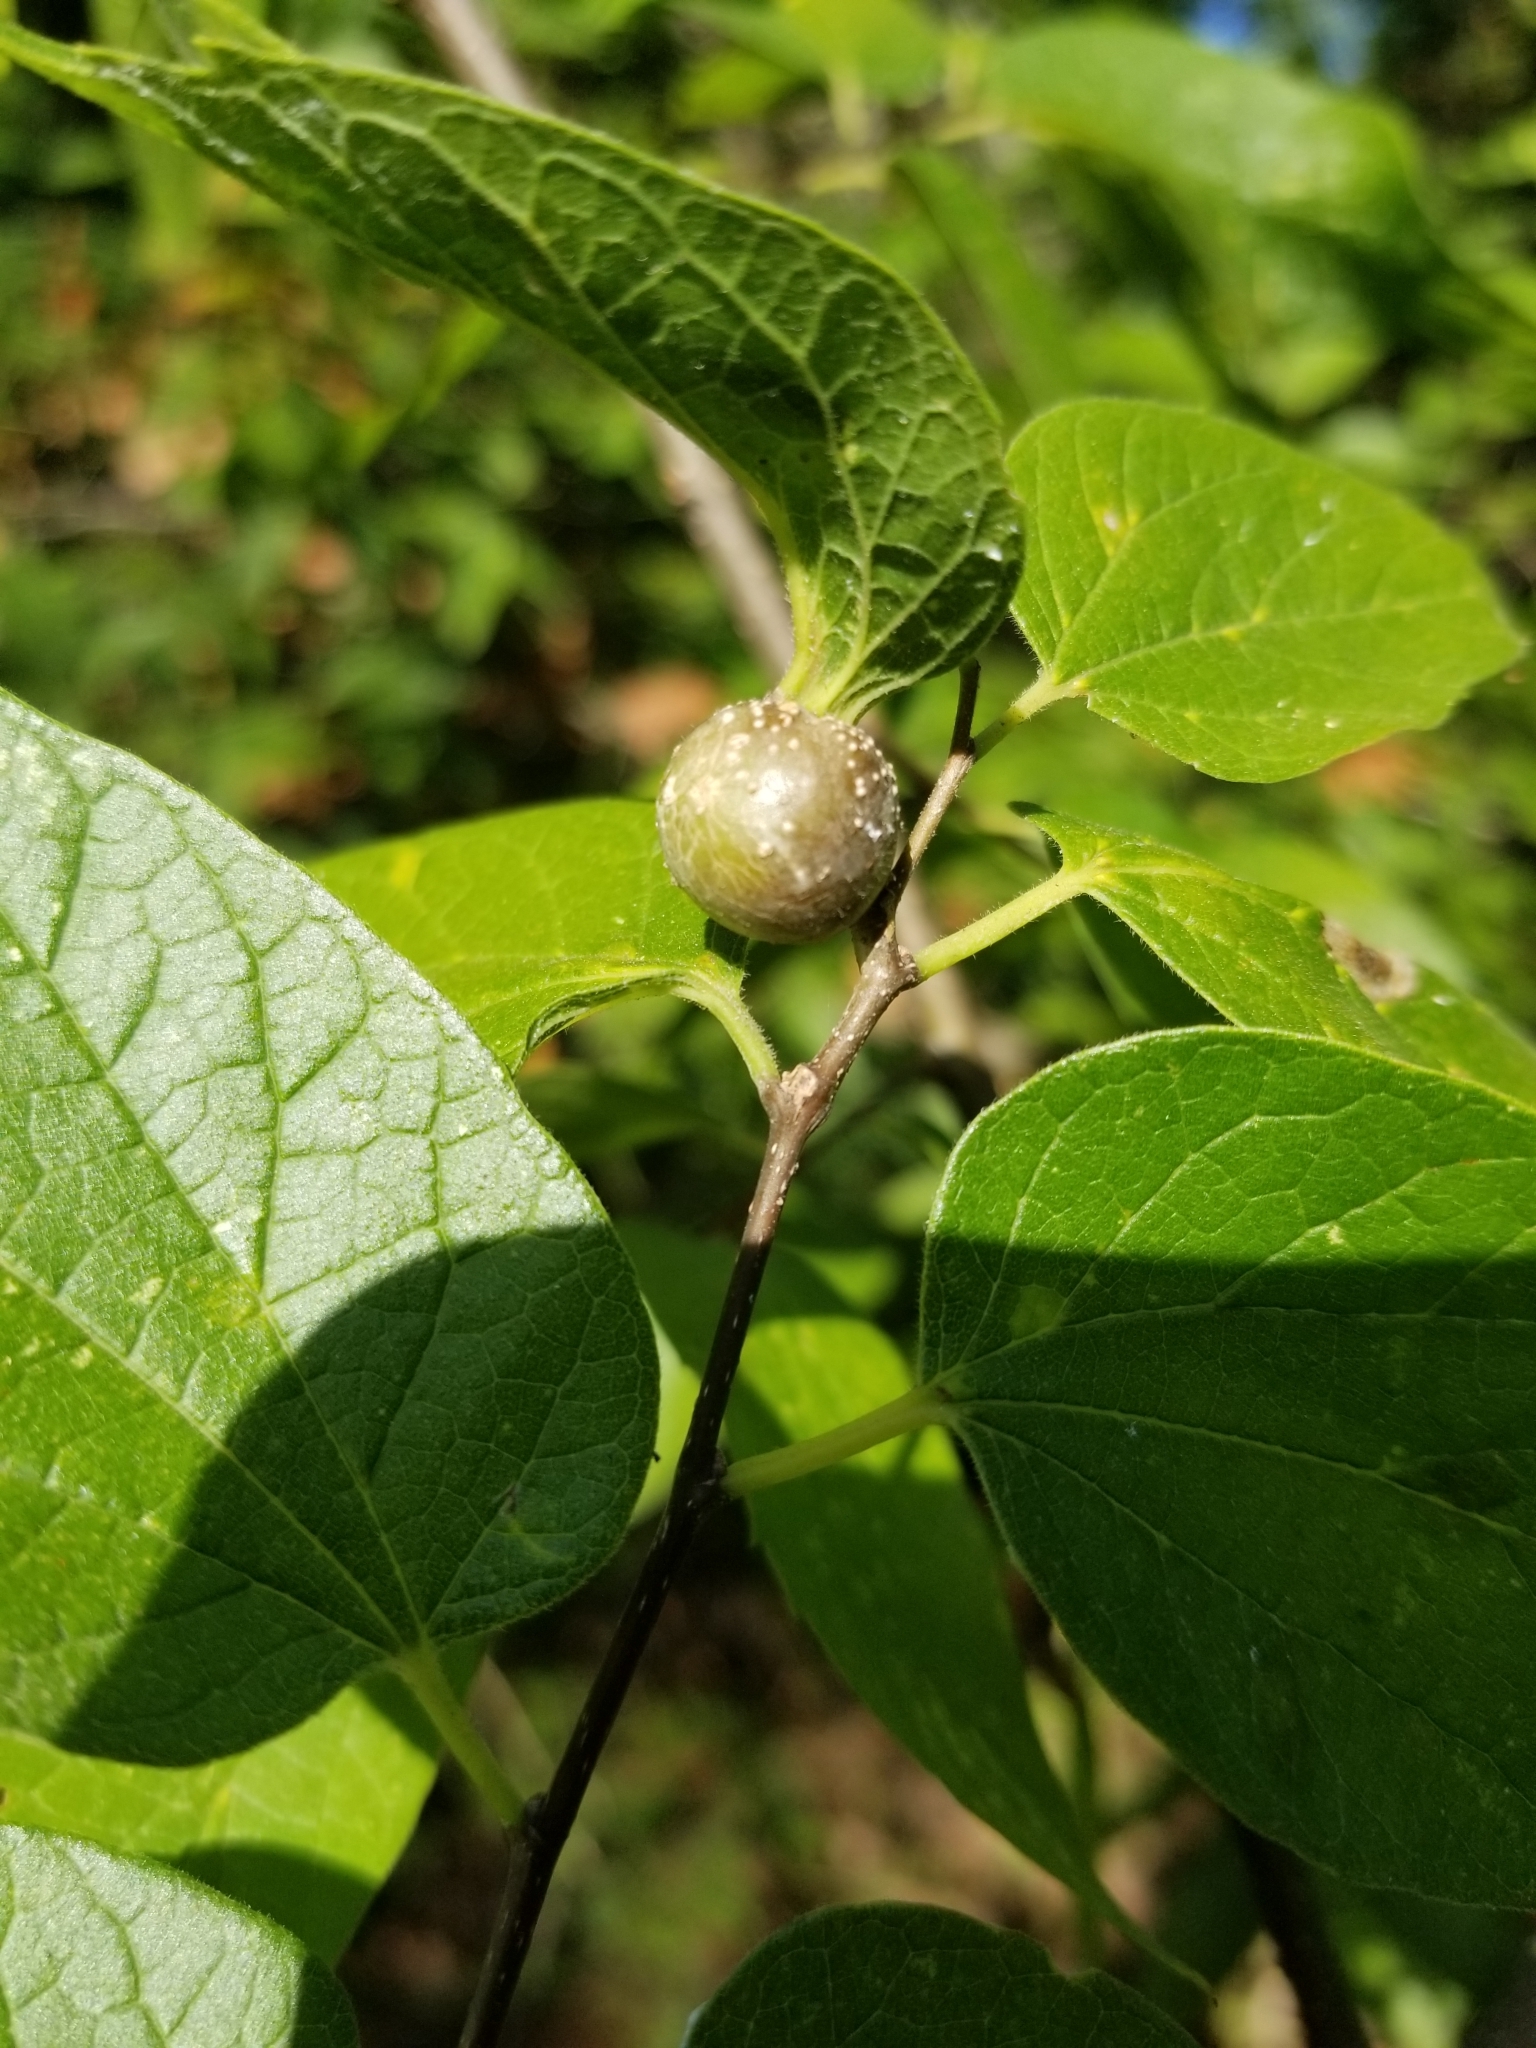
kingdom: Animalia
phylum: Arthropoda
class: Insecta
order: Hemiptera
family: Aphalaridae
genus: Pachypsylla
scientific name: Pachypsylla venusta
